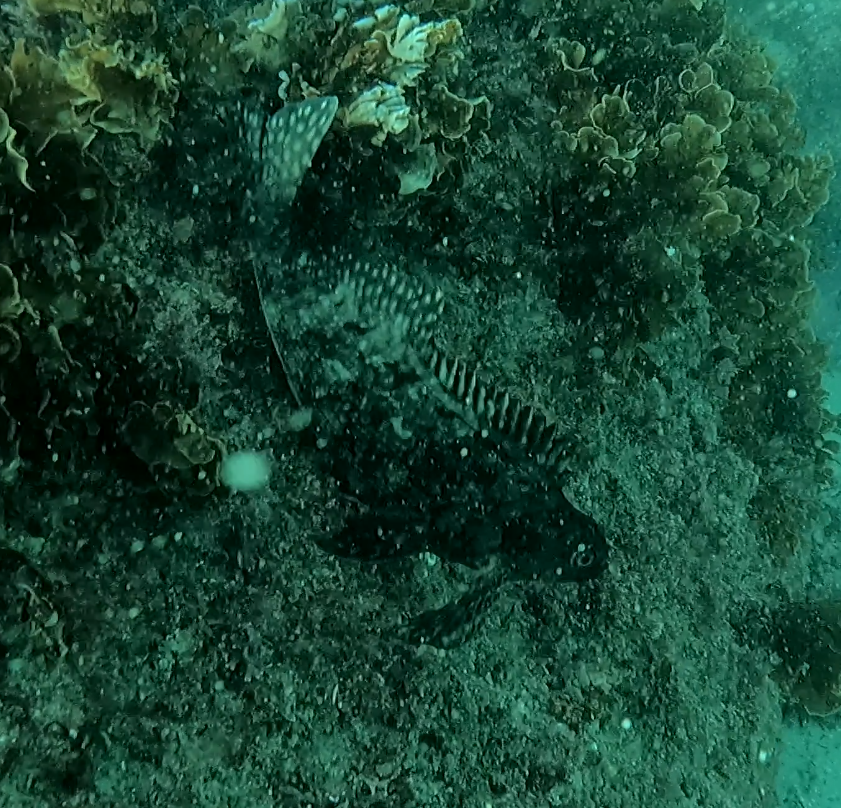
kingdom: Animalia
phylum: Chordata
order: Perciformes
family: Aplodactylidae
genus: Aplodactylus
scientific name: Aplodactylus lophodon
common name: Cockatoo fish
